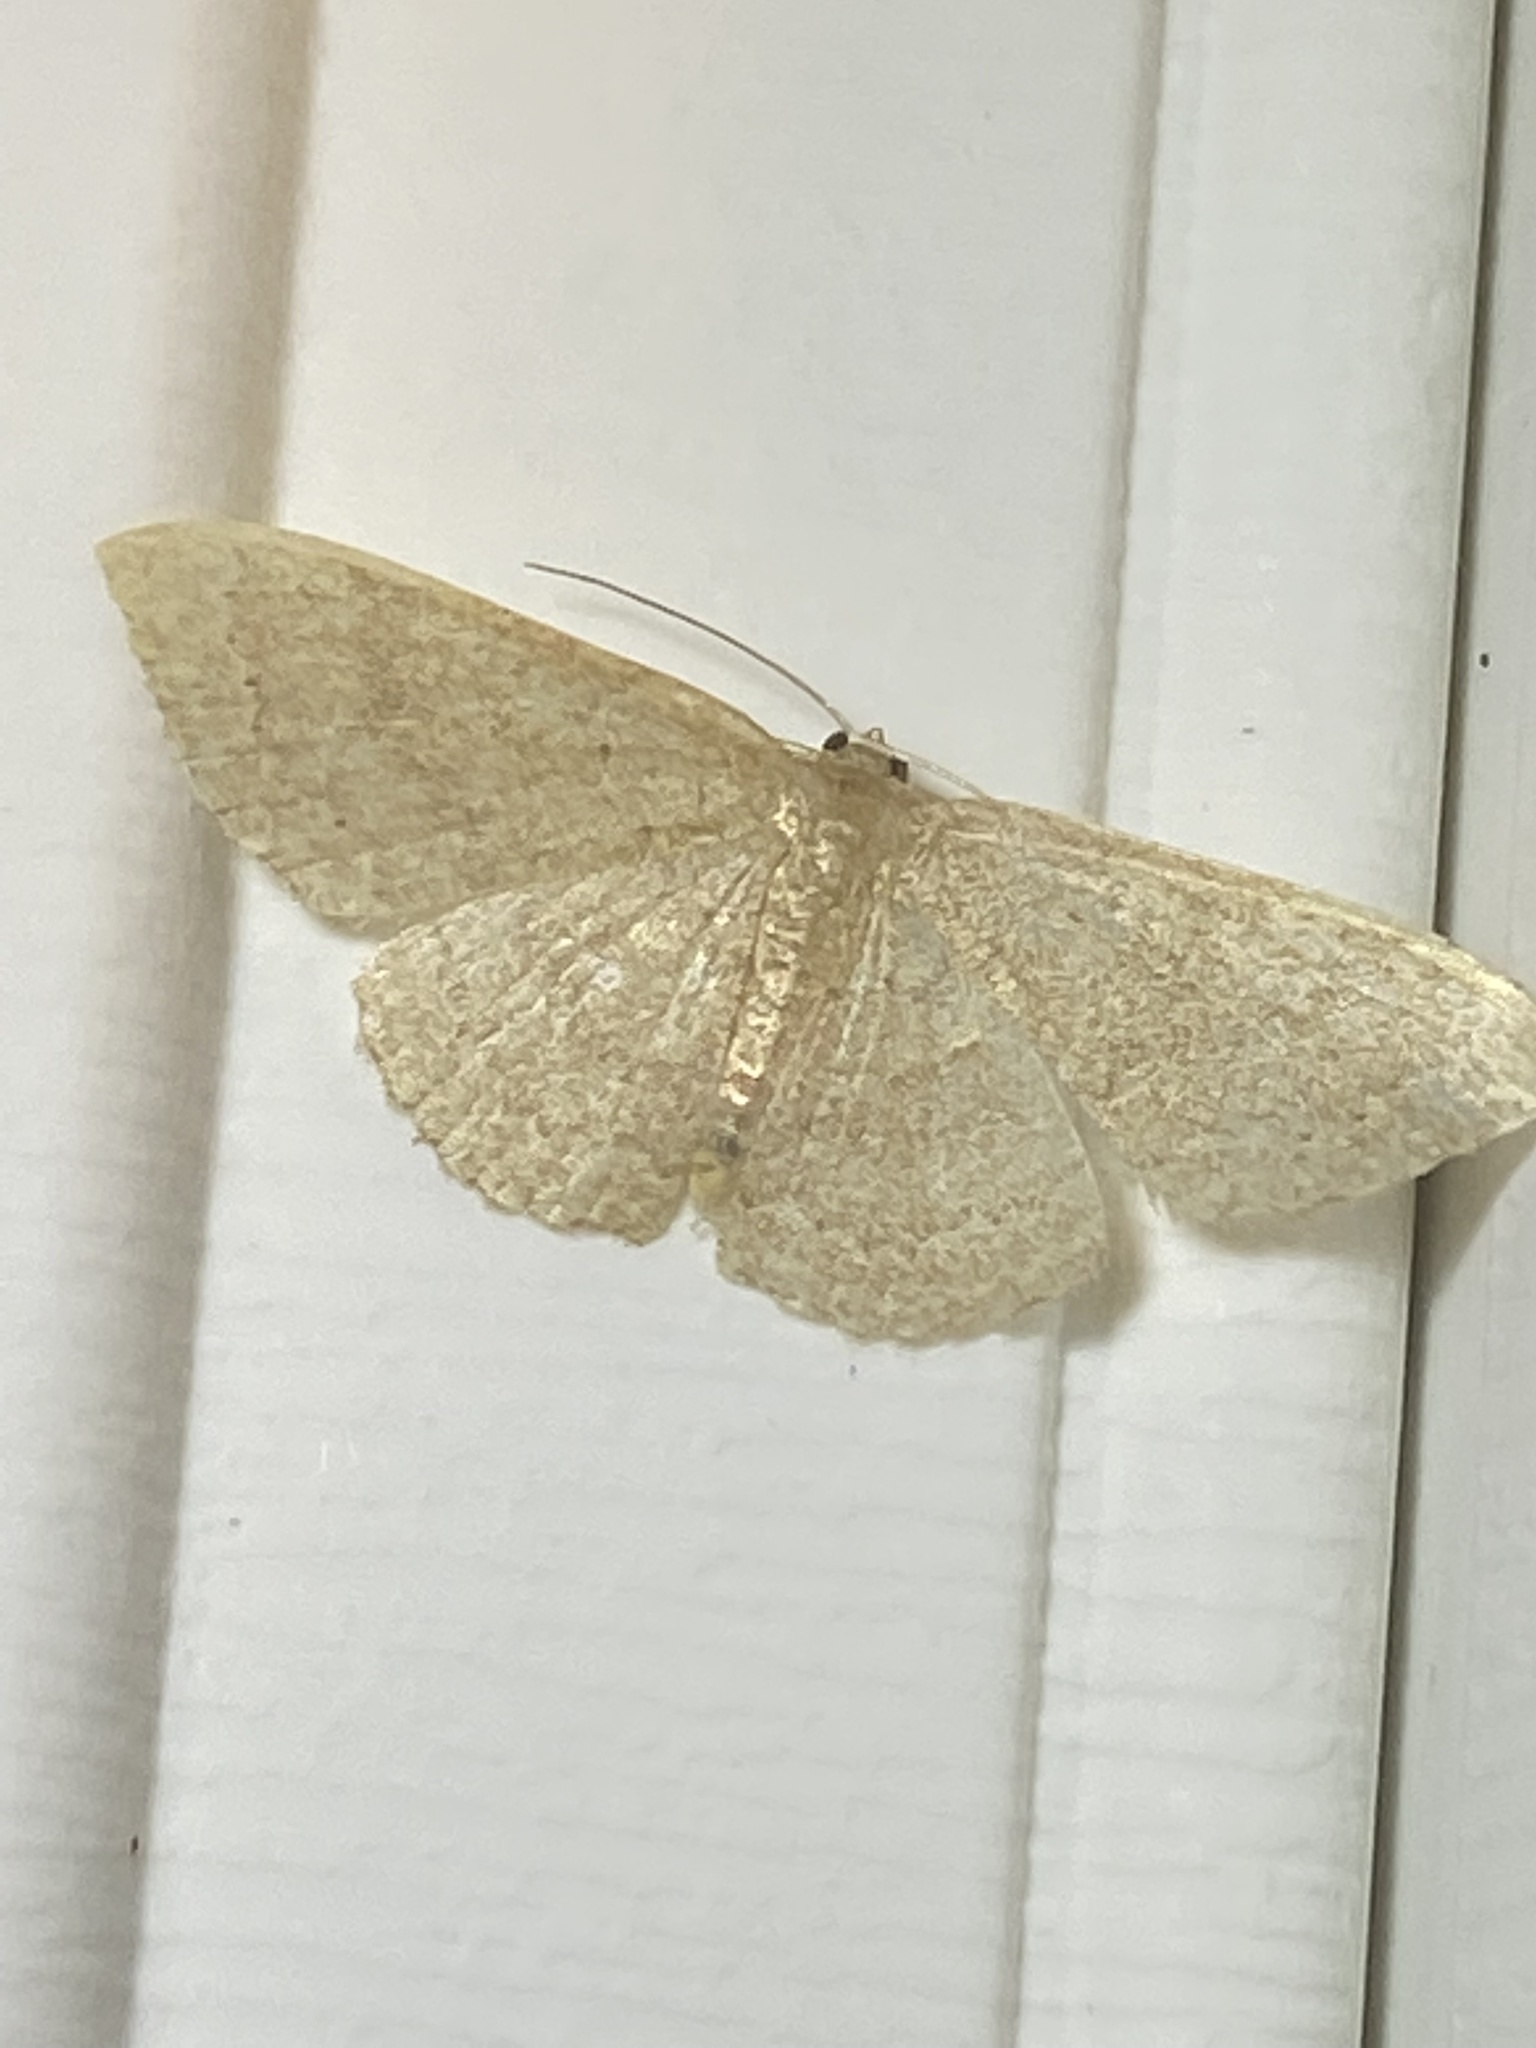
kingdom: Animalia
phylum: Arthropoda
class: Insecta
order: Lepidoptera
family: Geometridae
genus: Pleuroprucha
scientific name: Pleuroprucha insulsaria
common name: Common tan wave
